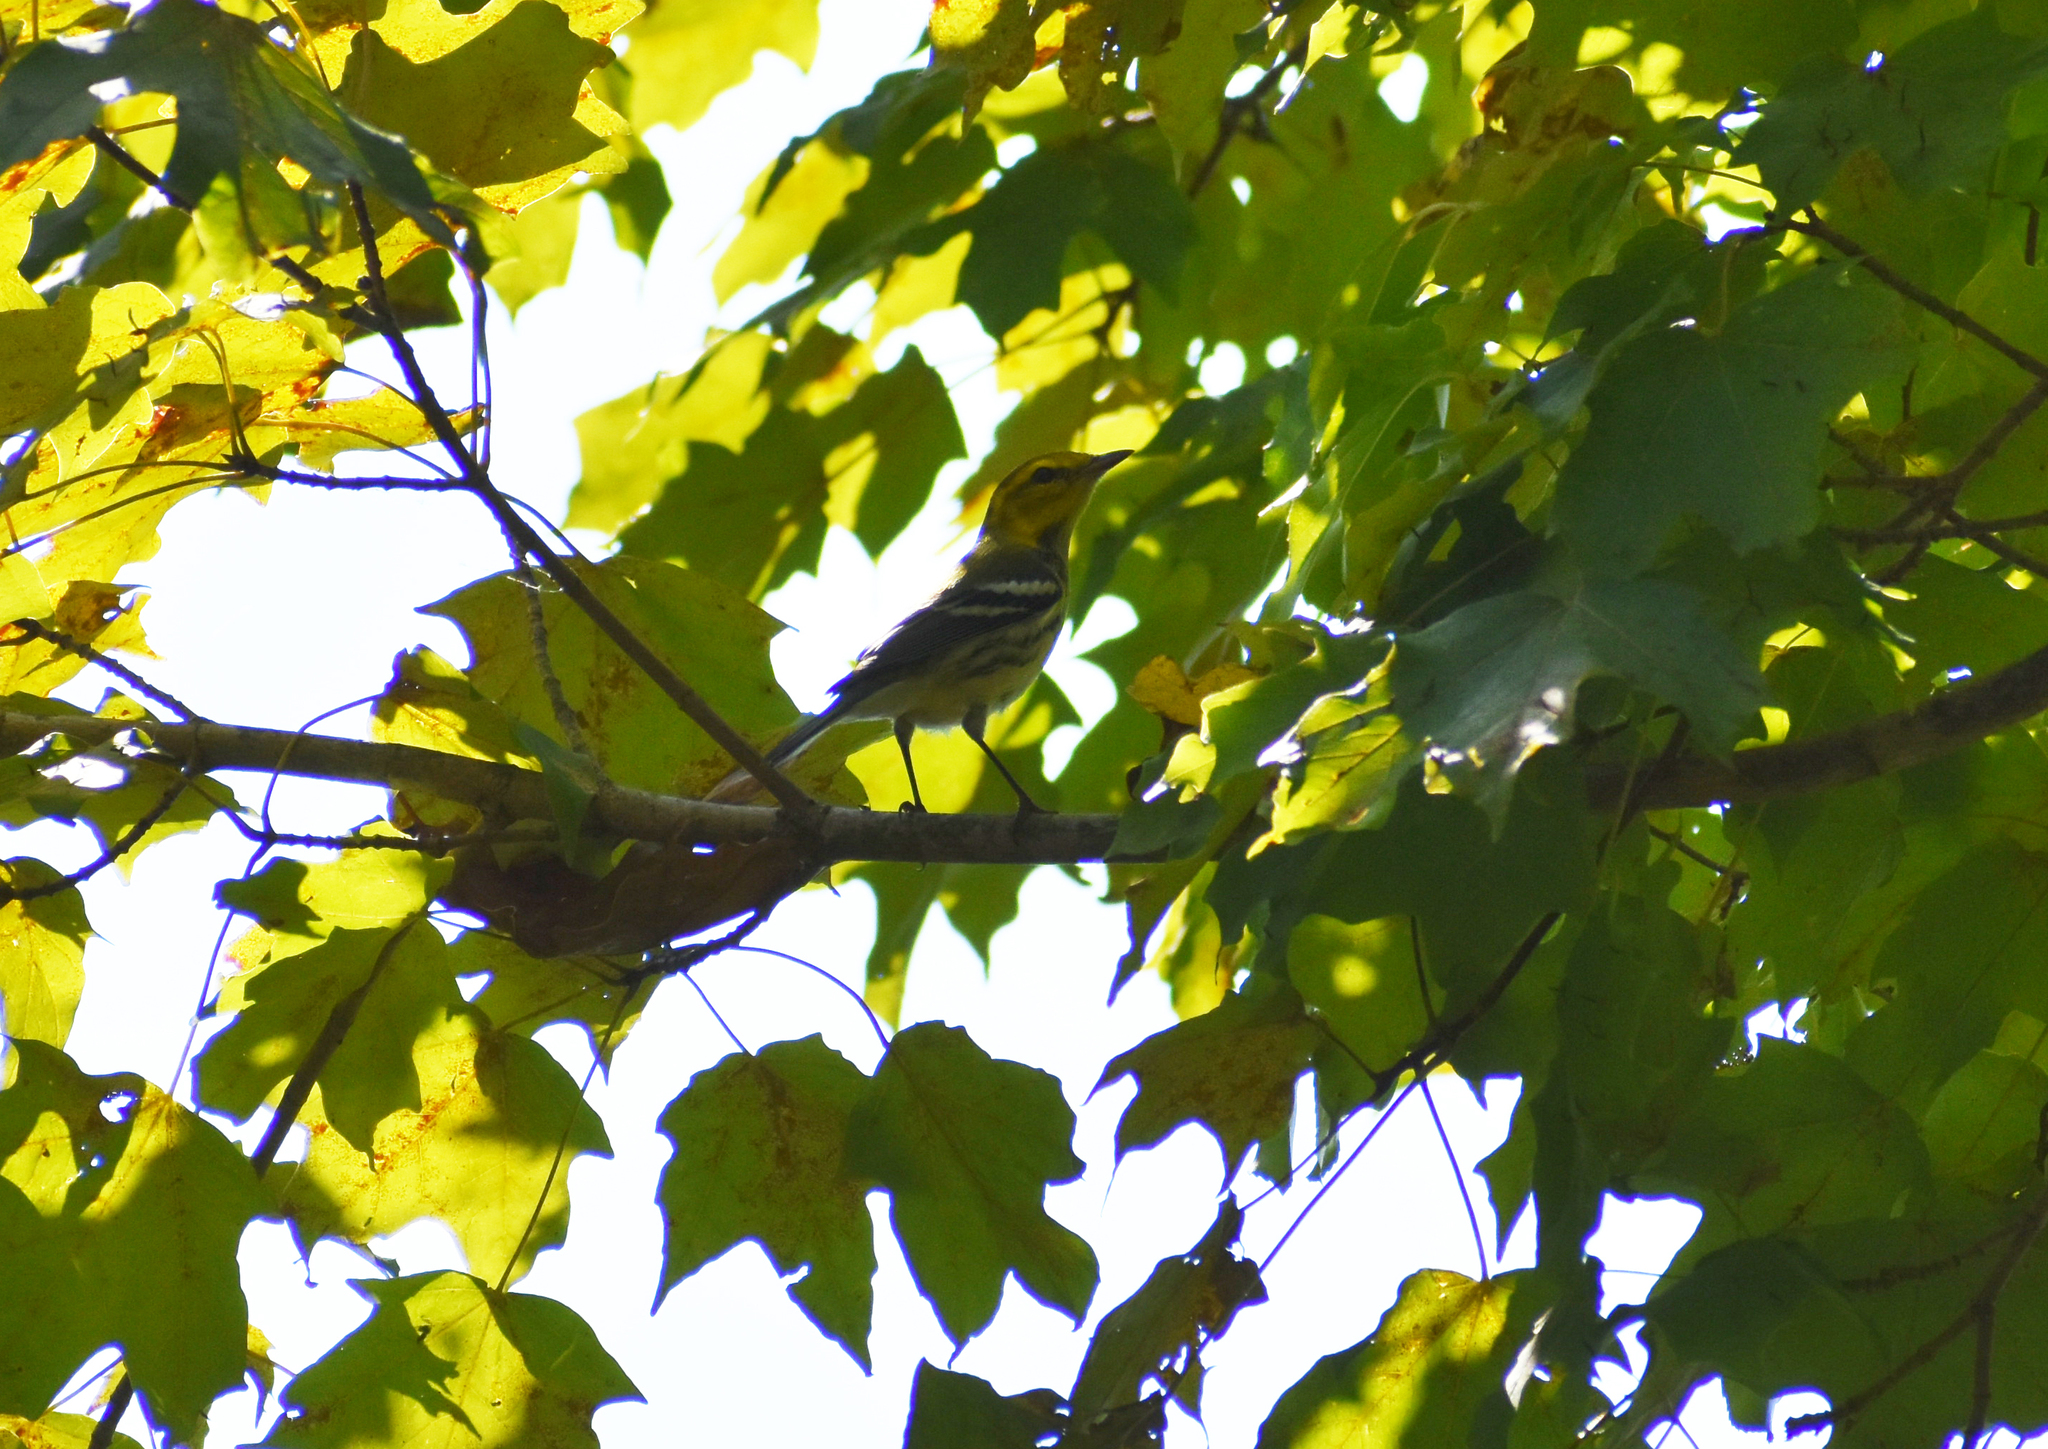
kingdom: Animalia
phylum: Chordata
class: Aves
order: Passeriformes
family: Parulidae
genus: Setophaga
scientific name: Setophaga virens
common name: Black-throated green warbler
